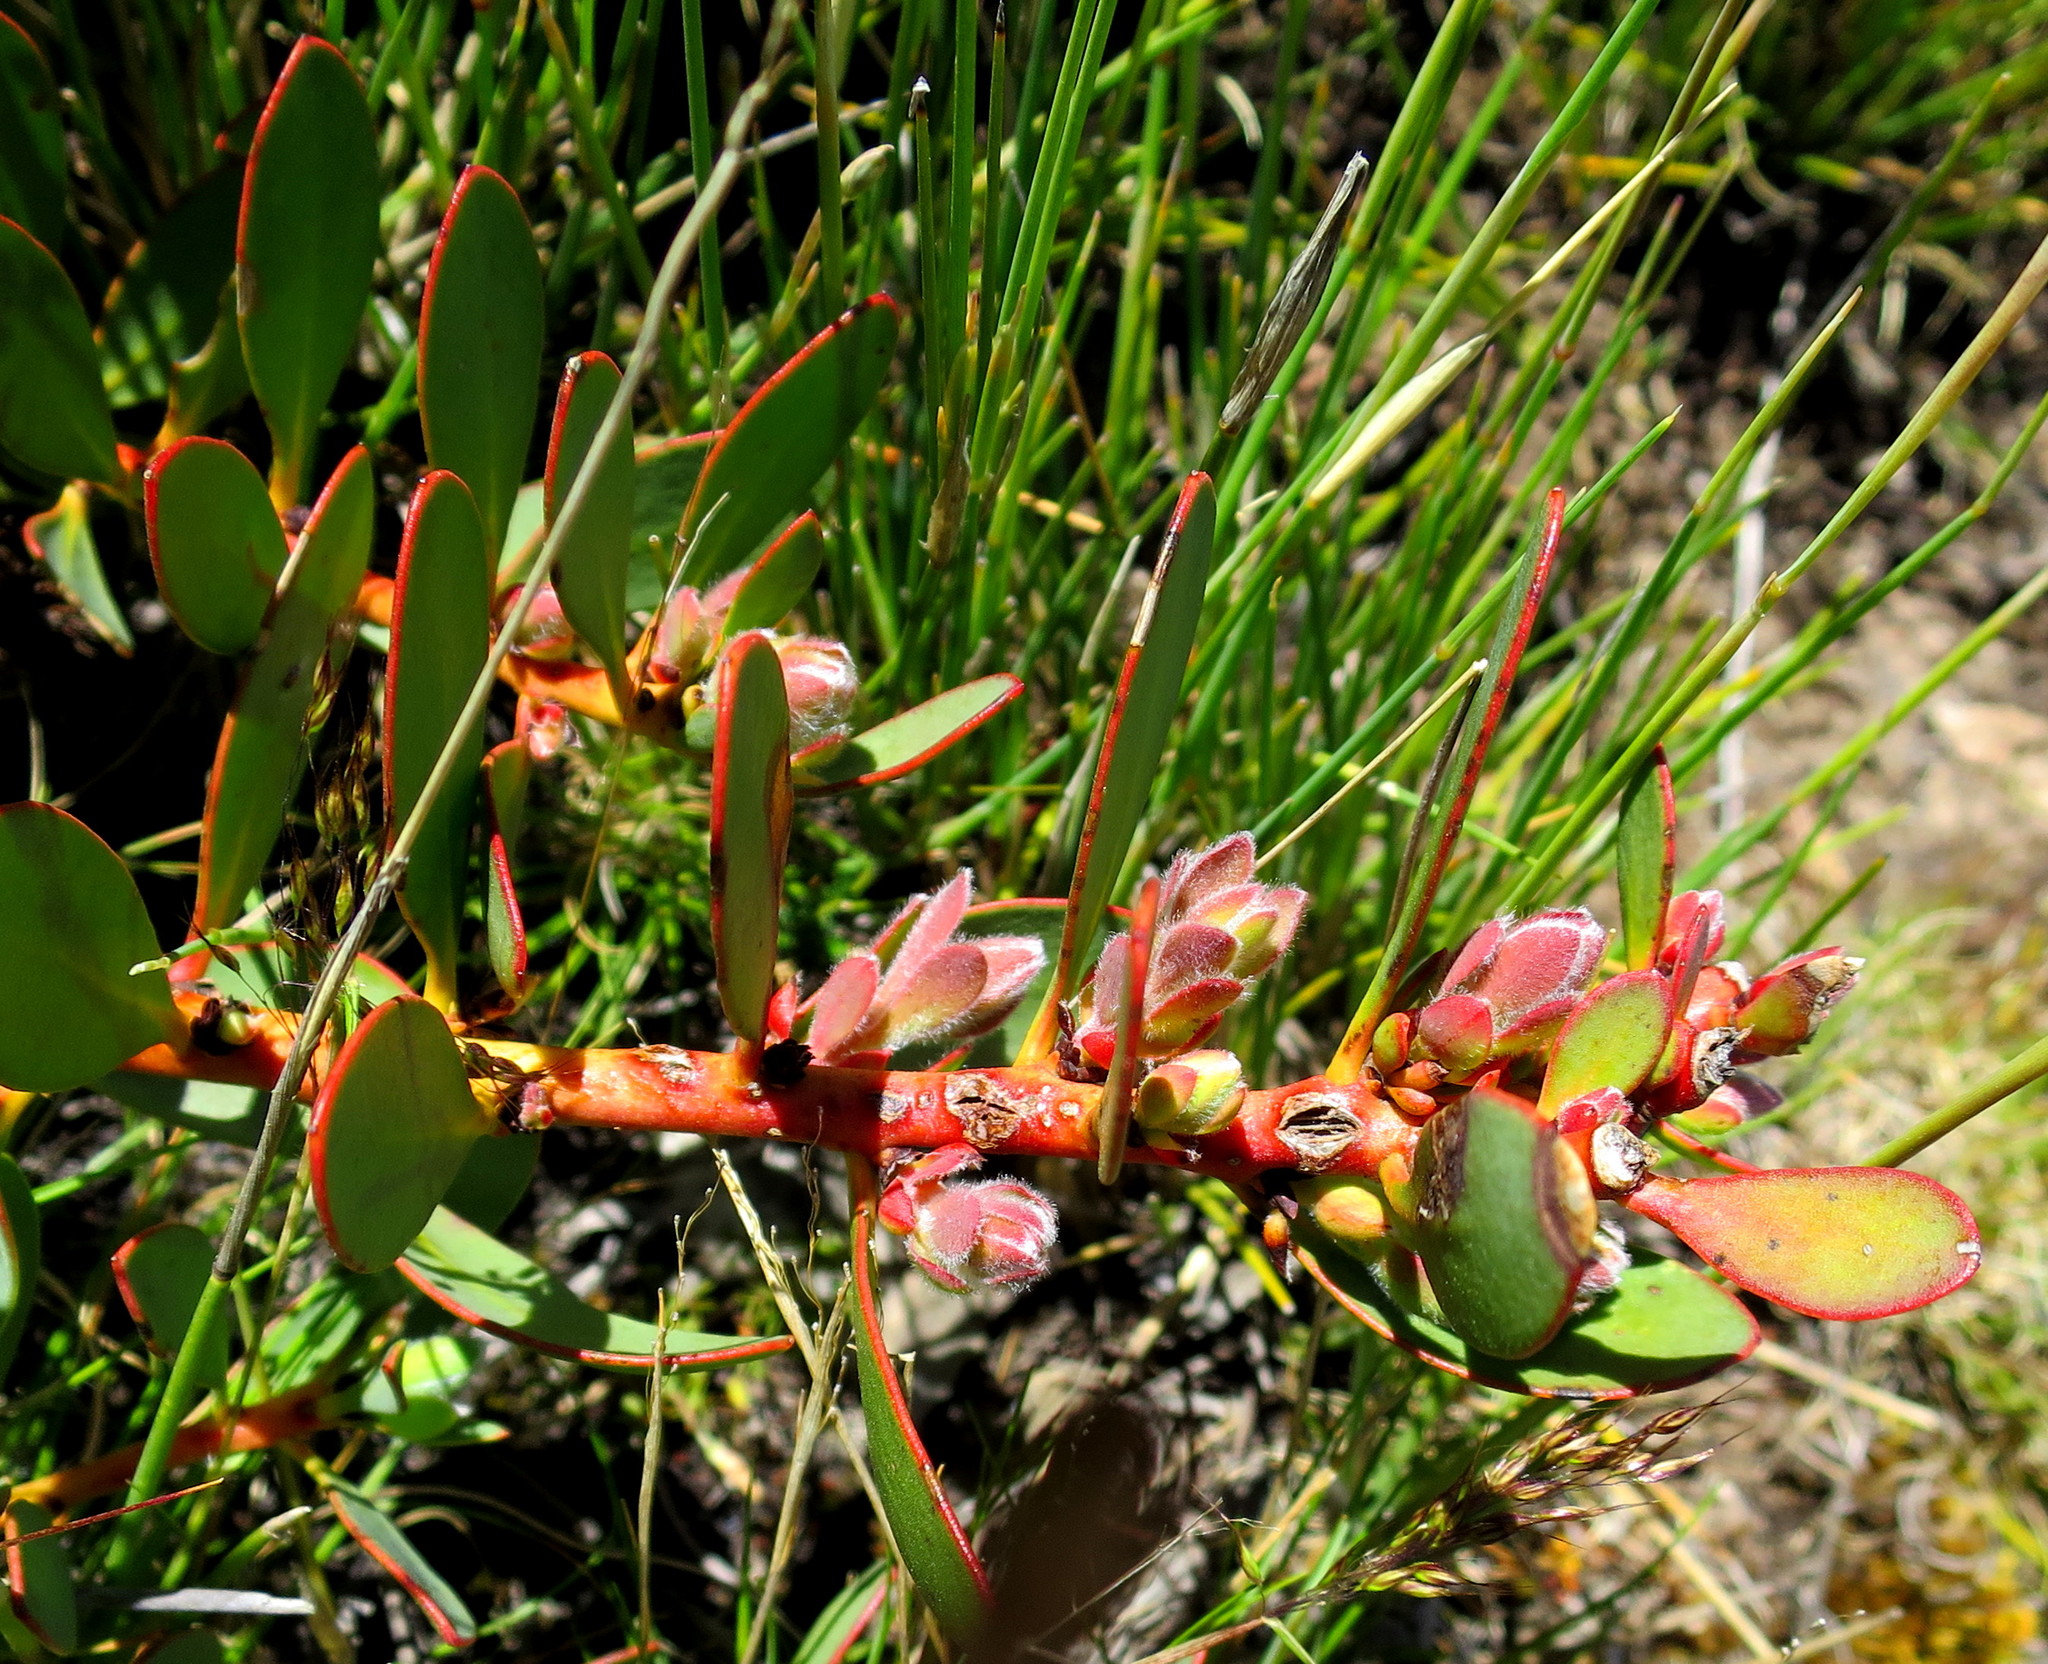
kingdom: Plantae
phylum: Tracheophyta
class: Magnoliopsida
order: Proteales
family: Proteaceae
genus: Protea
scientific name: Protea venusta
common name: Cascade sugarbush
